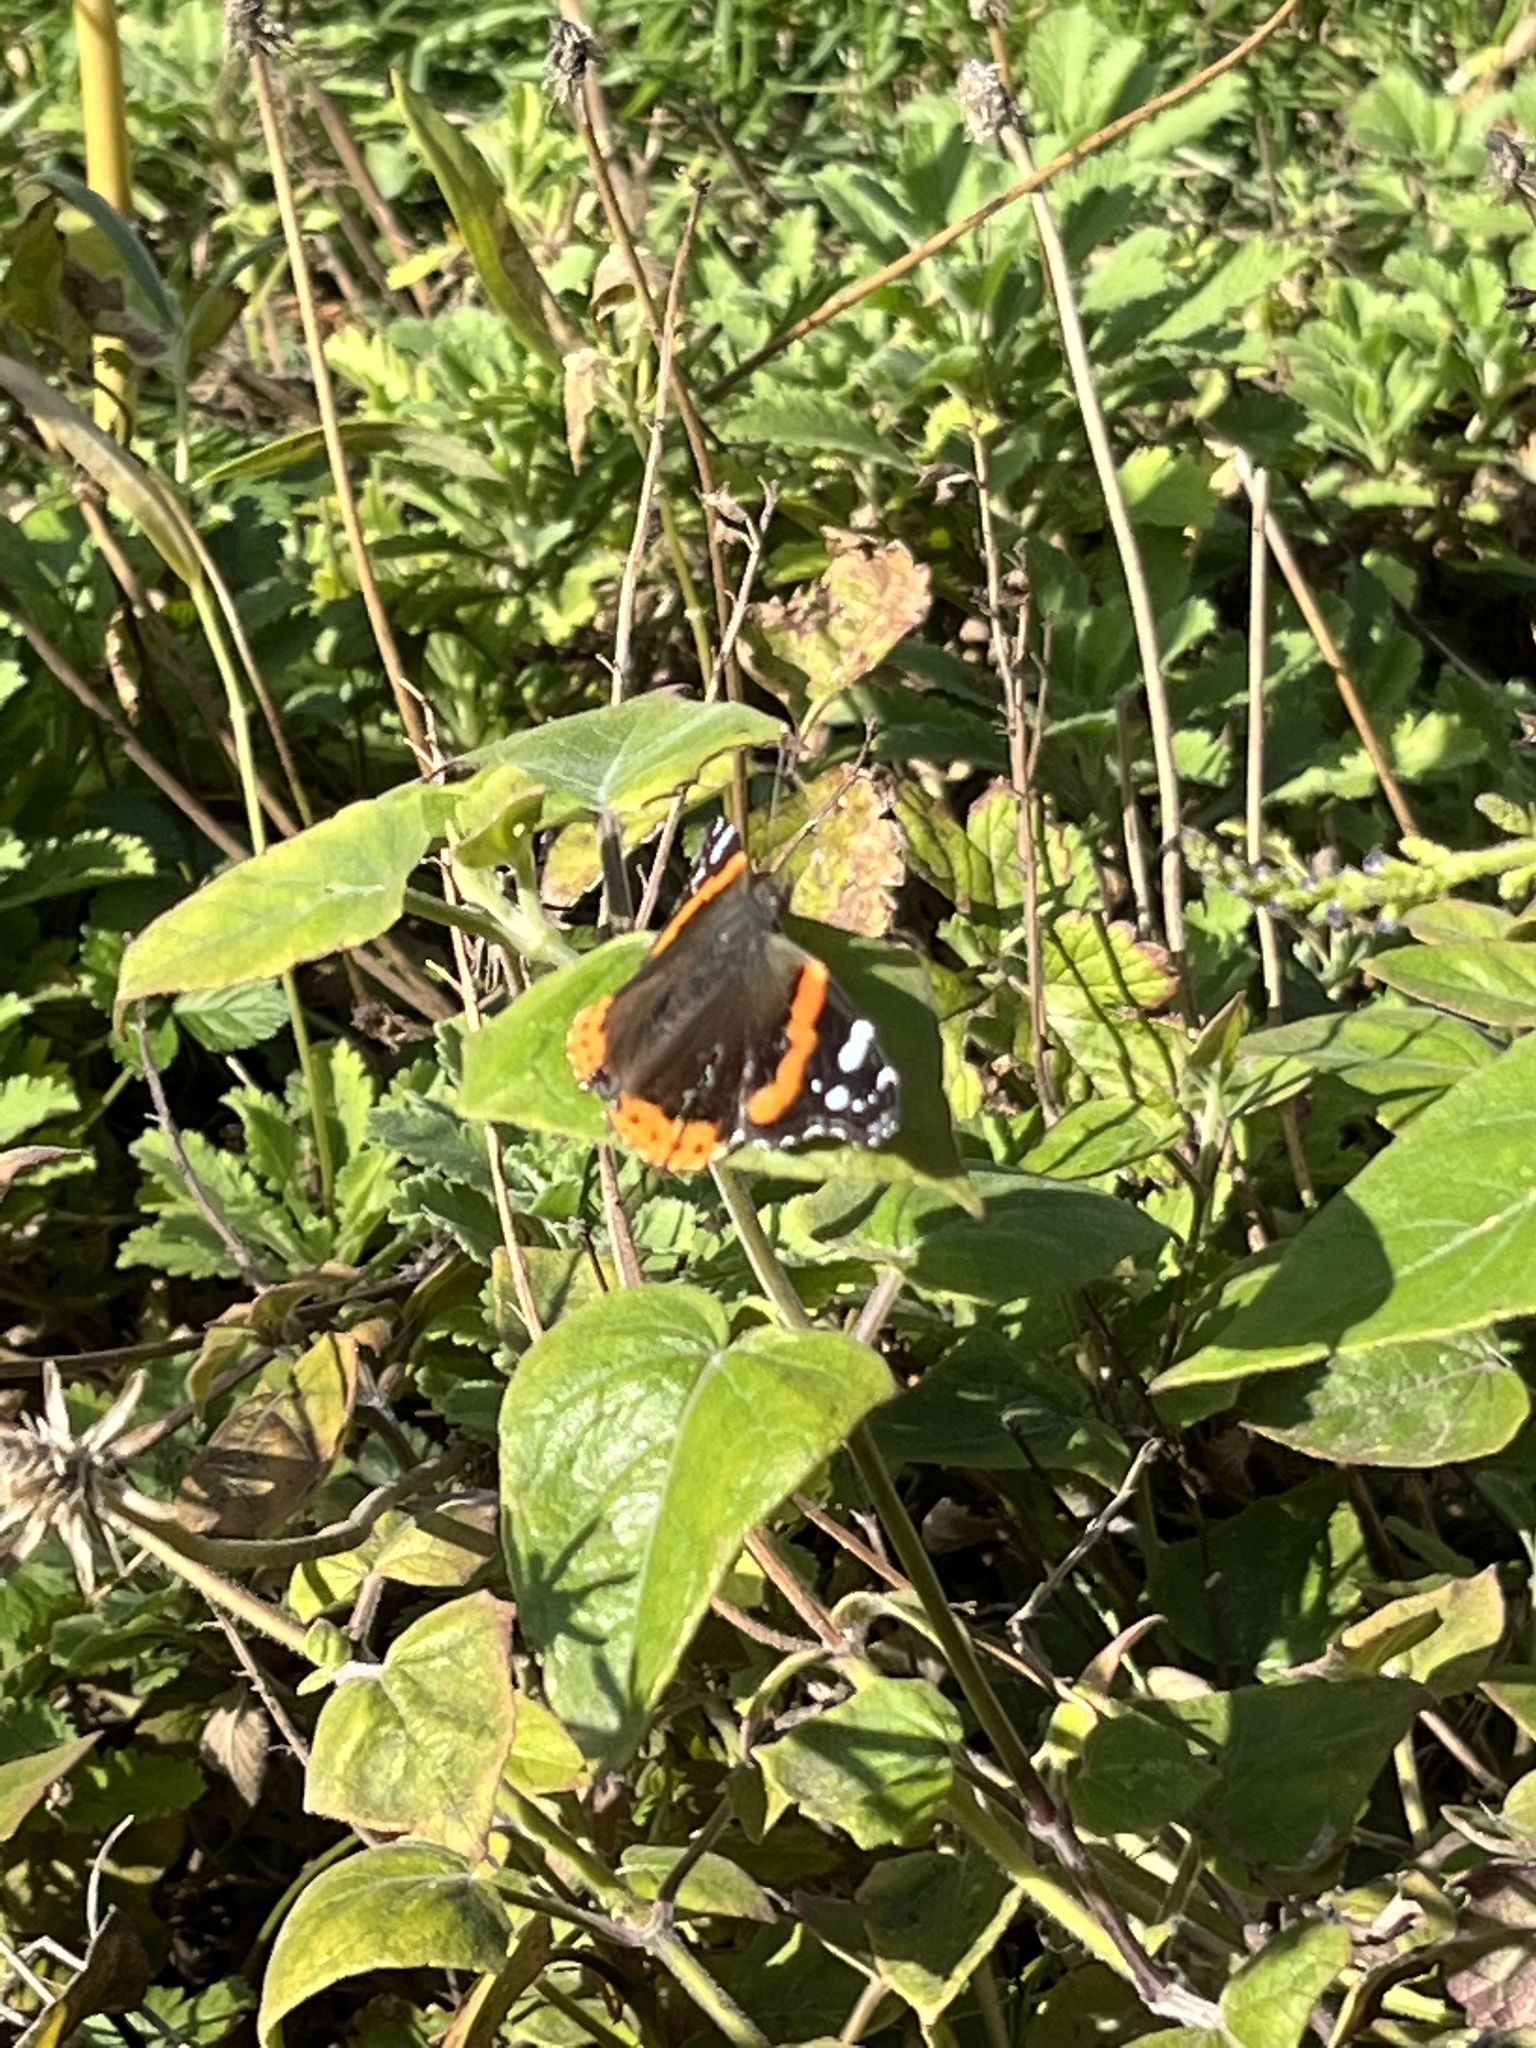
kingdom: Animalia
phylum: Arthropoda
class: Insecta
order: Lepidoptera
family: Nymphalidae
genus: Vanessa
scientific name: Vanessa atalanta
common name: Red admiral
